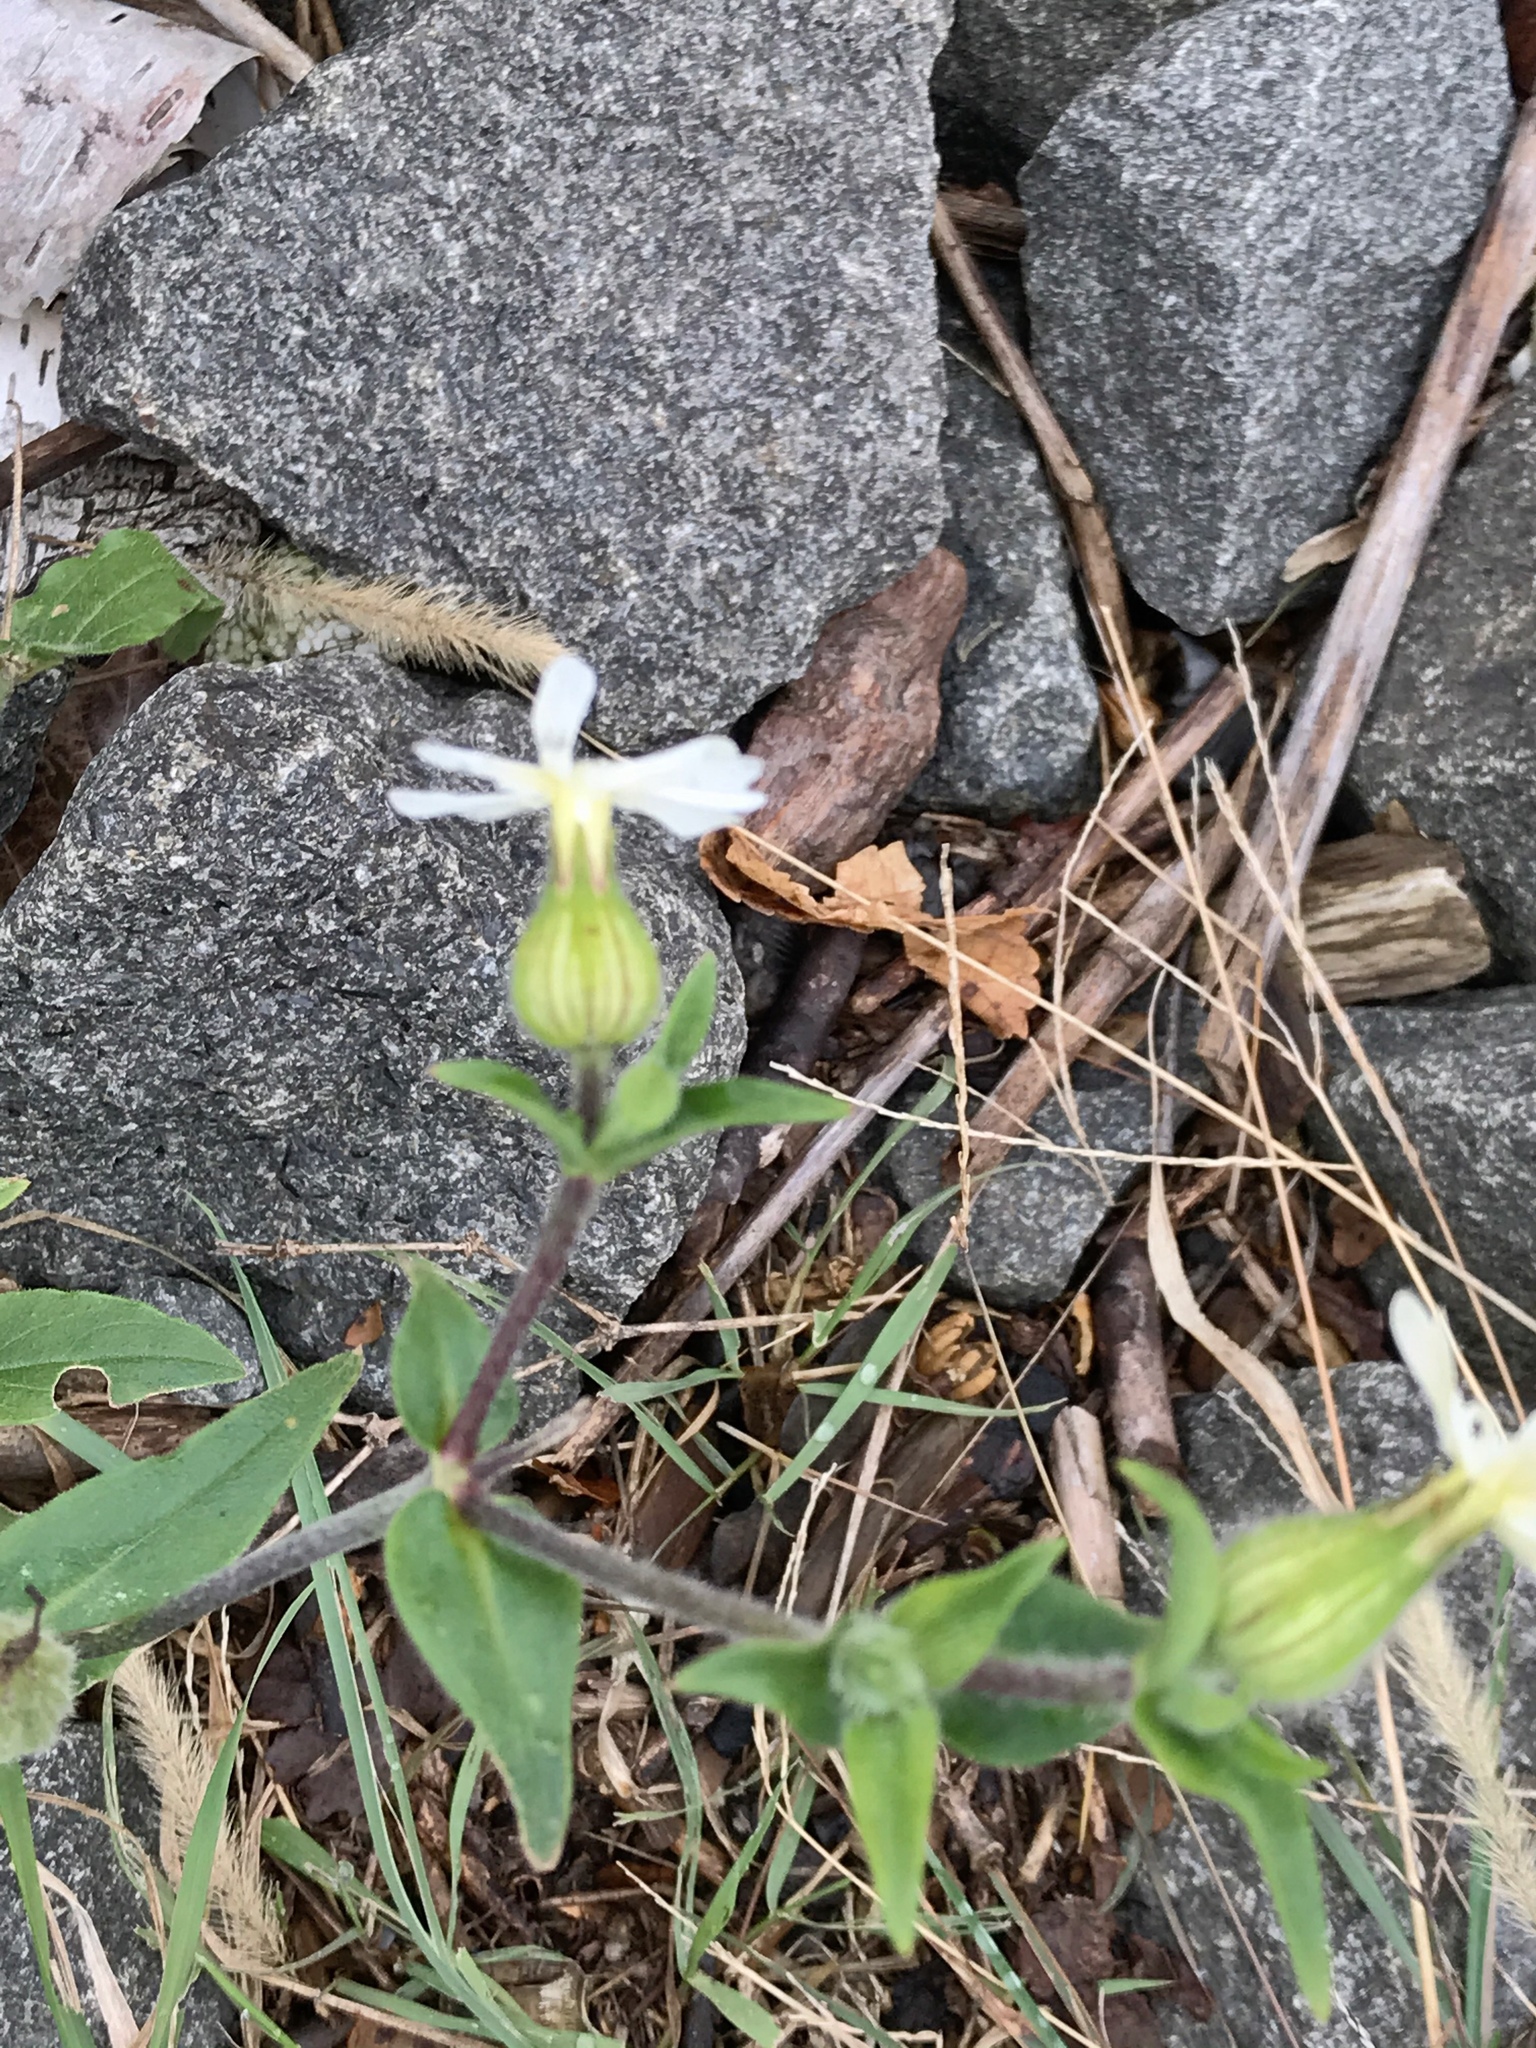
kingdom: Plantae
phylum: Tracheophyta
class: Magnoliopsida
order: Caryophyllales
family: Caryophyllaceae
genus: Silene
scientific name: Silene latifolia
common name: White campion
